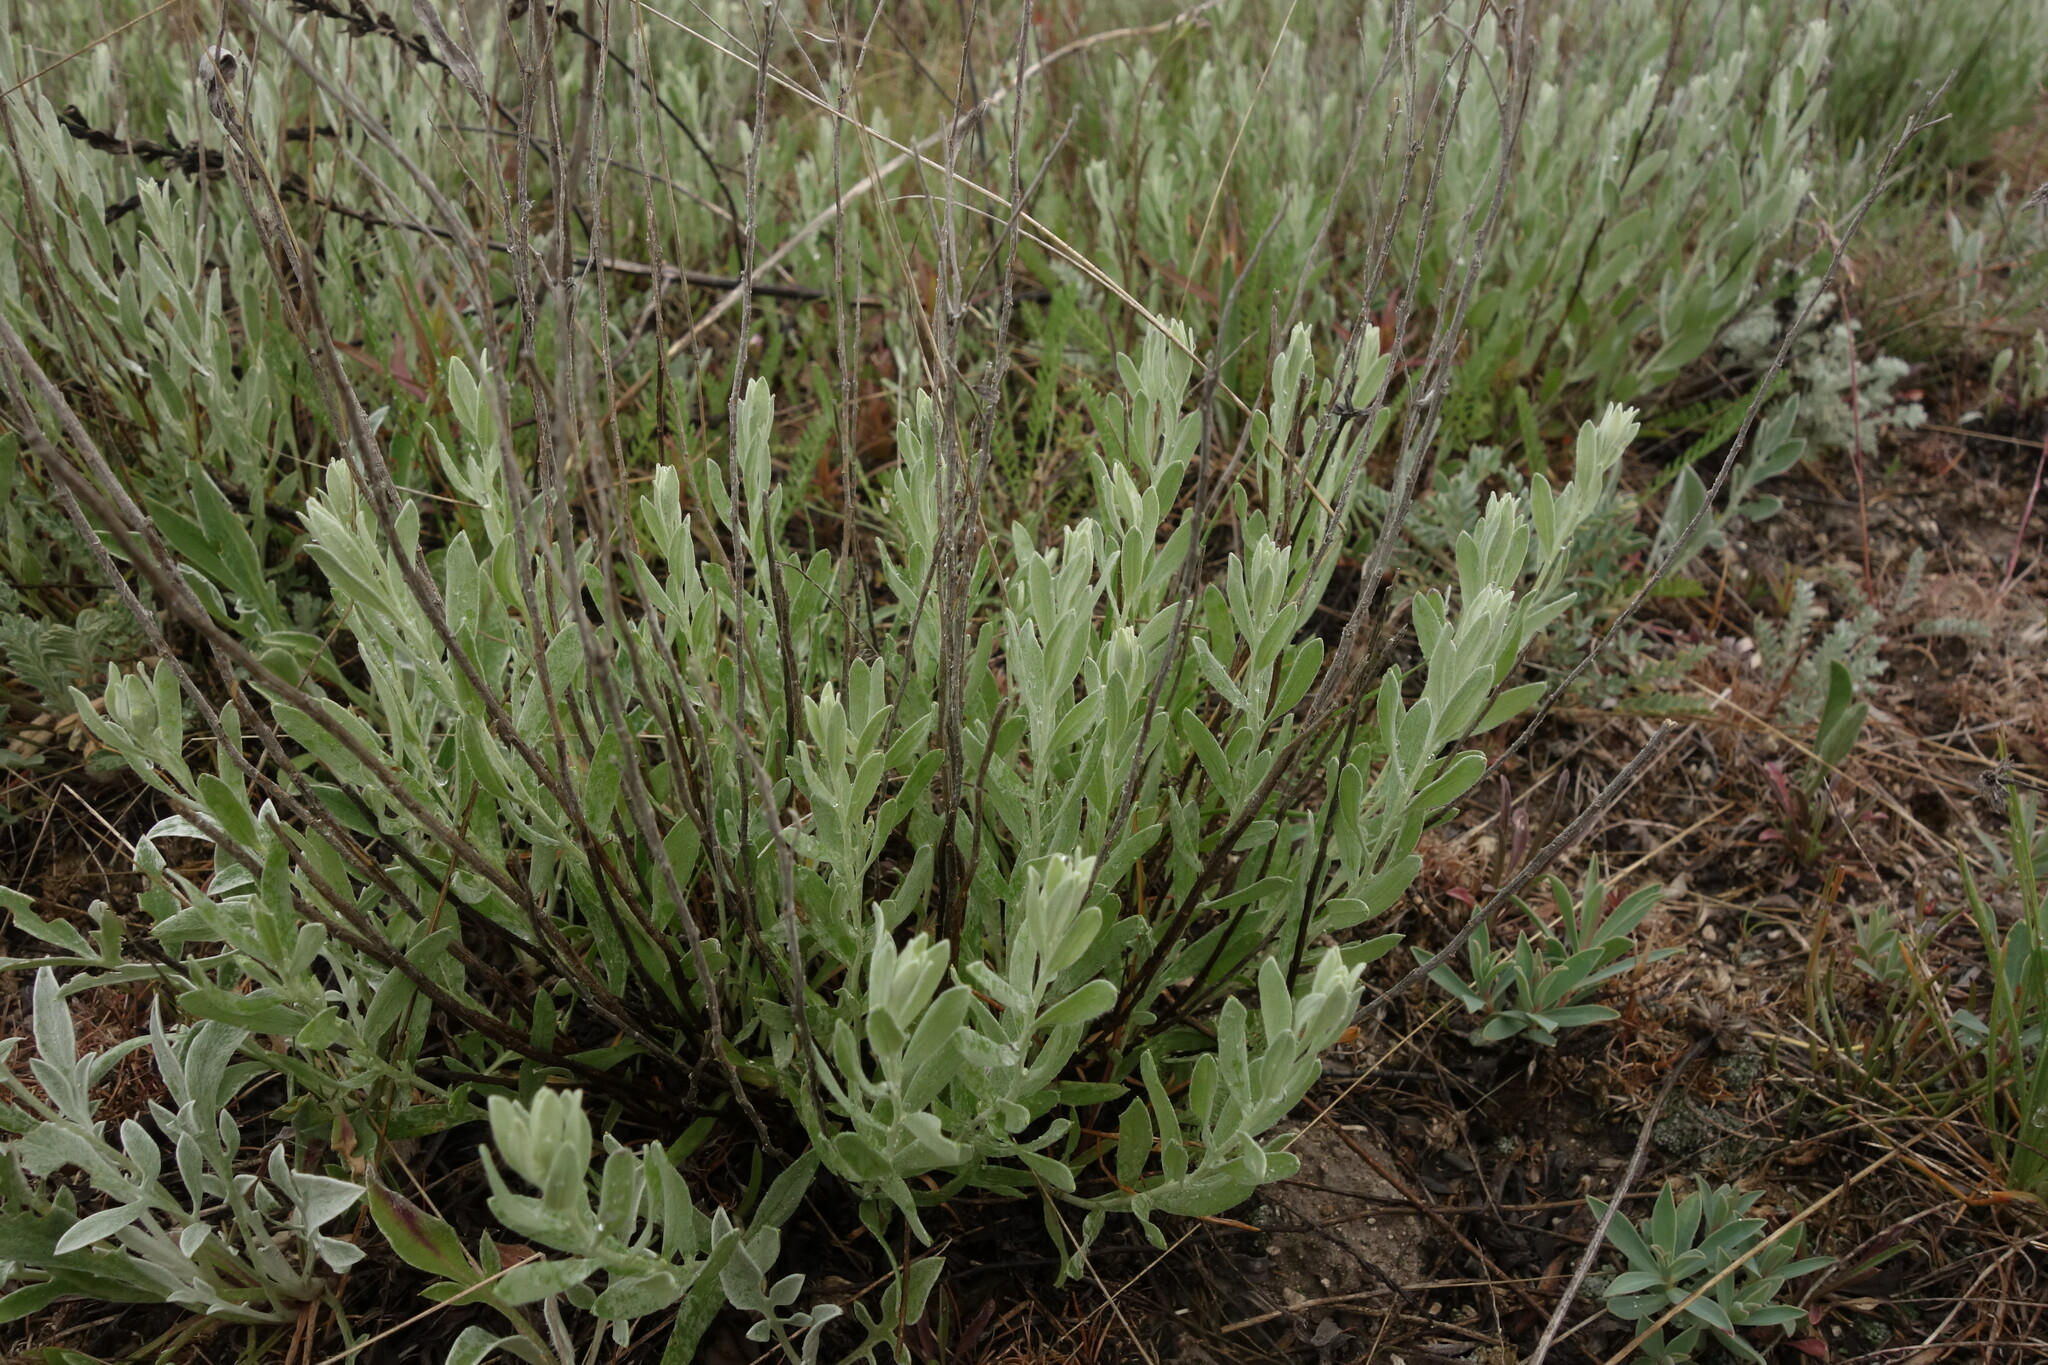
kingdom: Plantae
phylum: Tracheophyta
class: Magnoliopsida
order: Asterales
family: Asteraceae
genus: Galatella
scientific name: Galatella villosa
